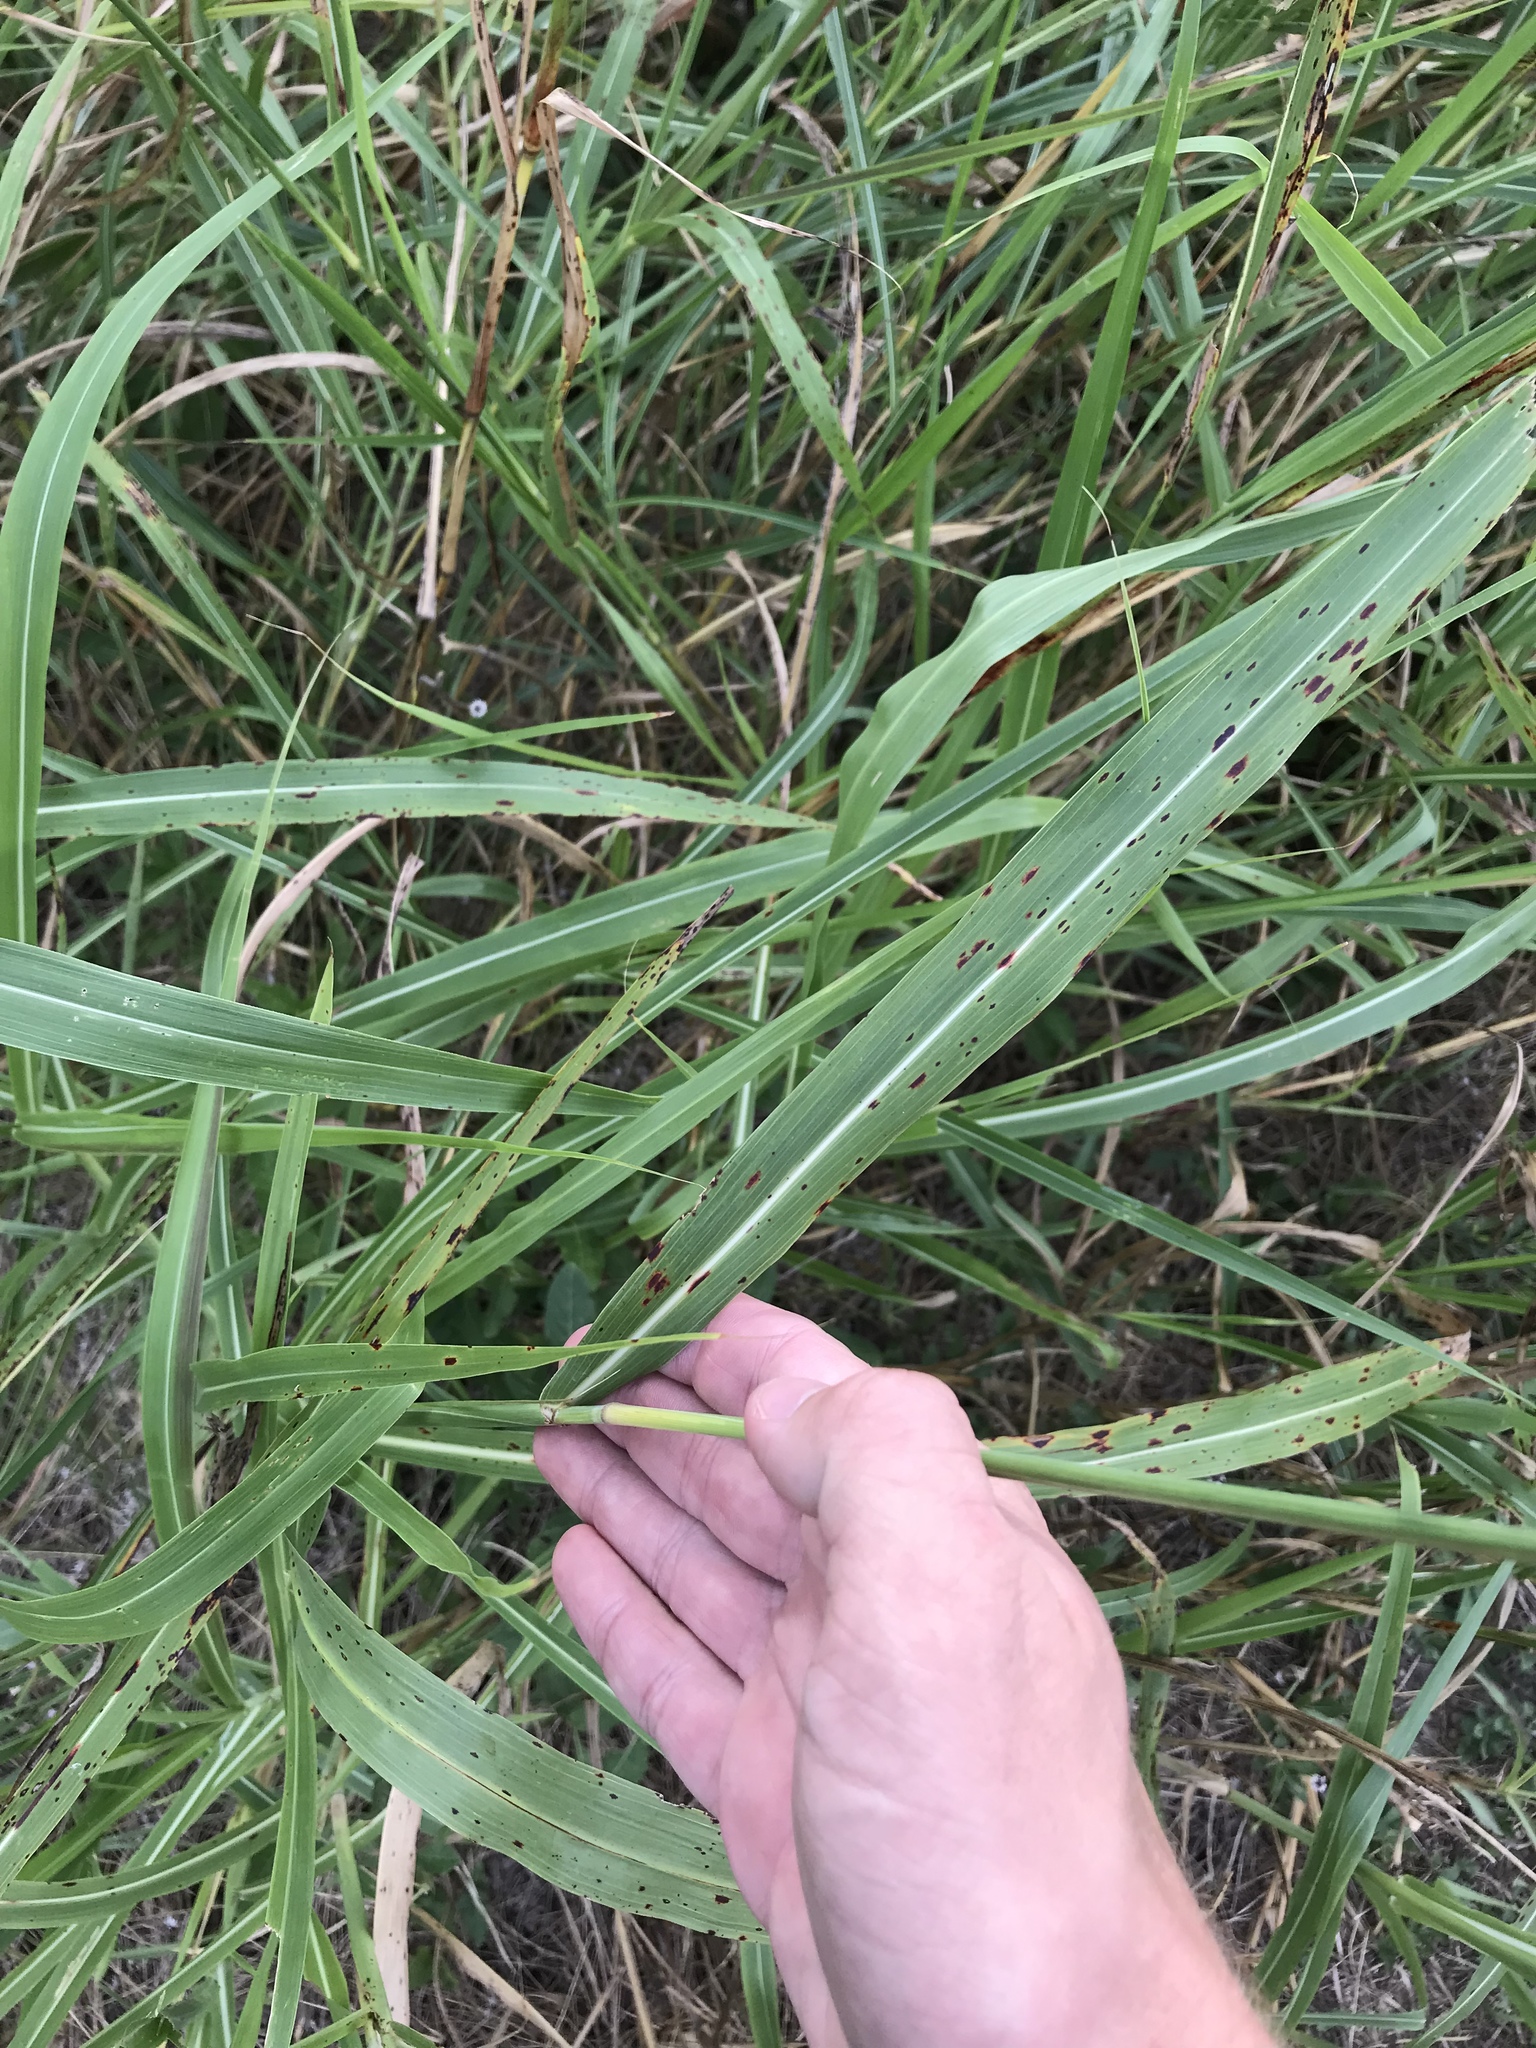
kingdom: Plantae
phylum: Tracheophyta
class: Liliopsida
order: Poales
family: Poaceae
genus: Sorghum
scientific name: Sorghum halepense
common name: Johnson-grass
